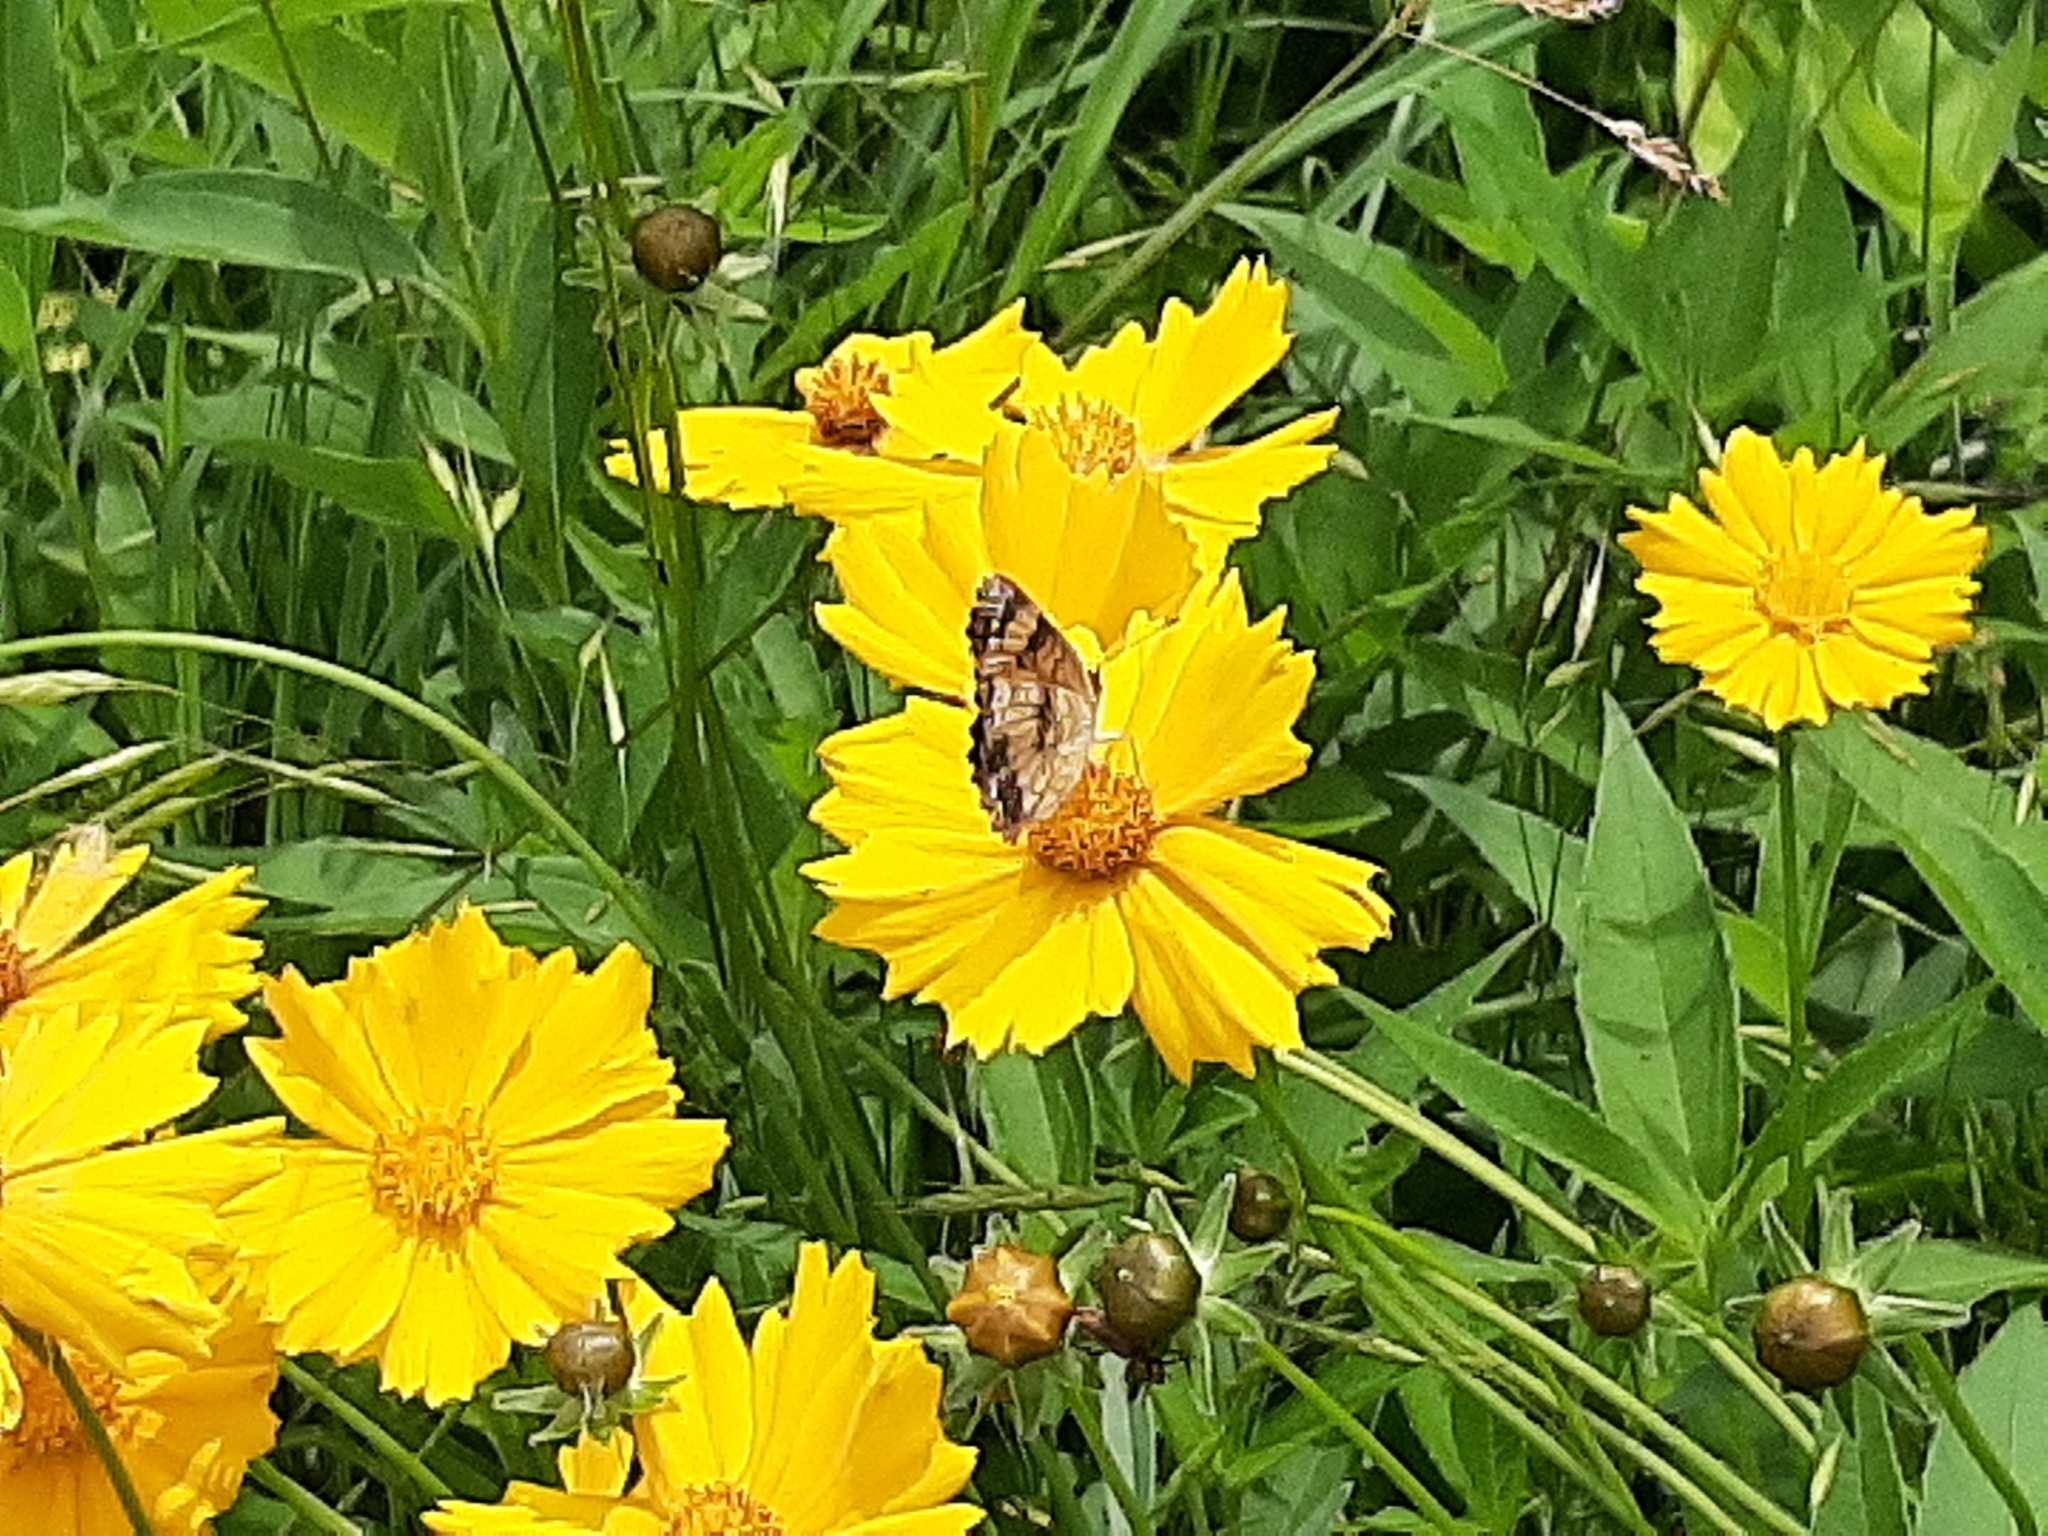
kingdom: Animalia
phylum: Arthropoda
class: Insecta
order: Lepidoptera
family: Nymphalidae
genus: Chlosyne
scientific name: Chlosyne nycteis
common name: Silvery checkerspot
